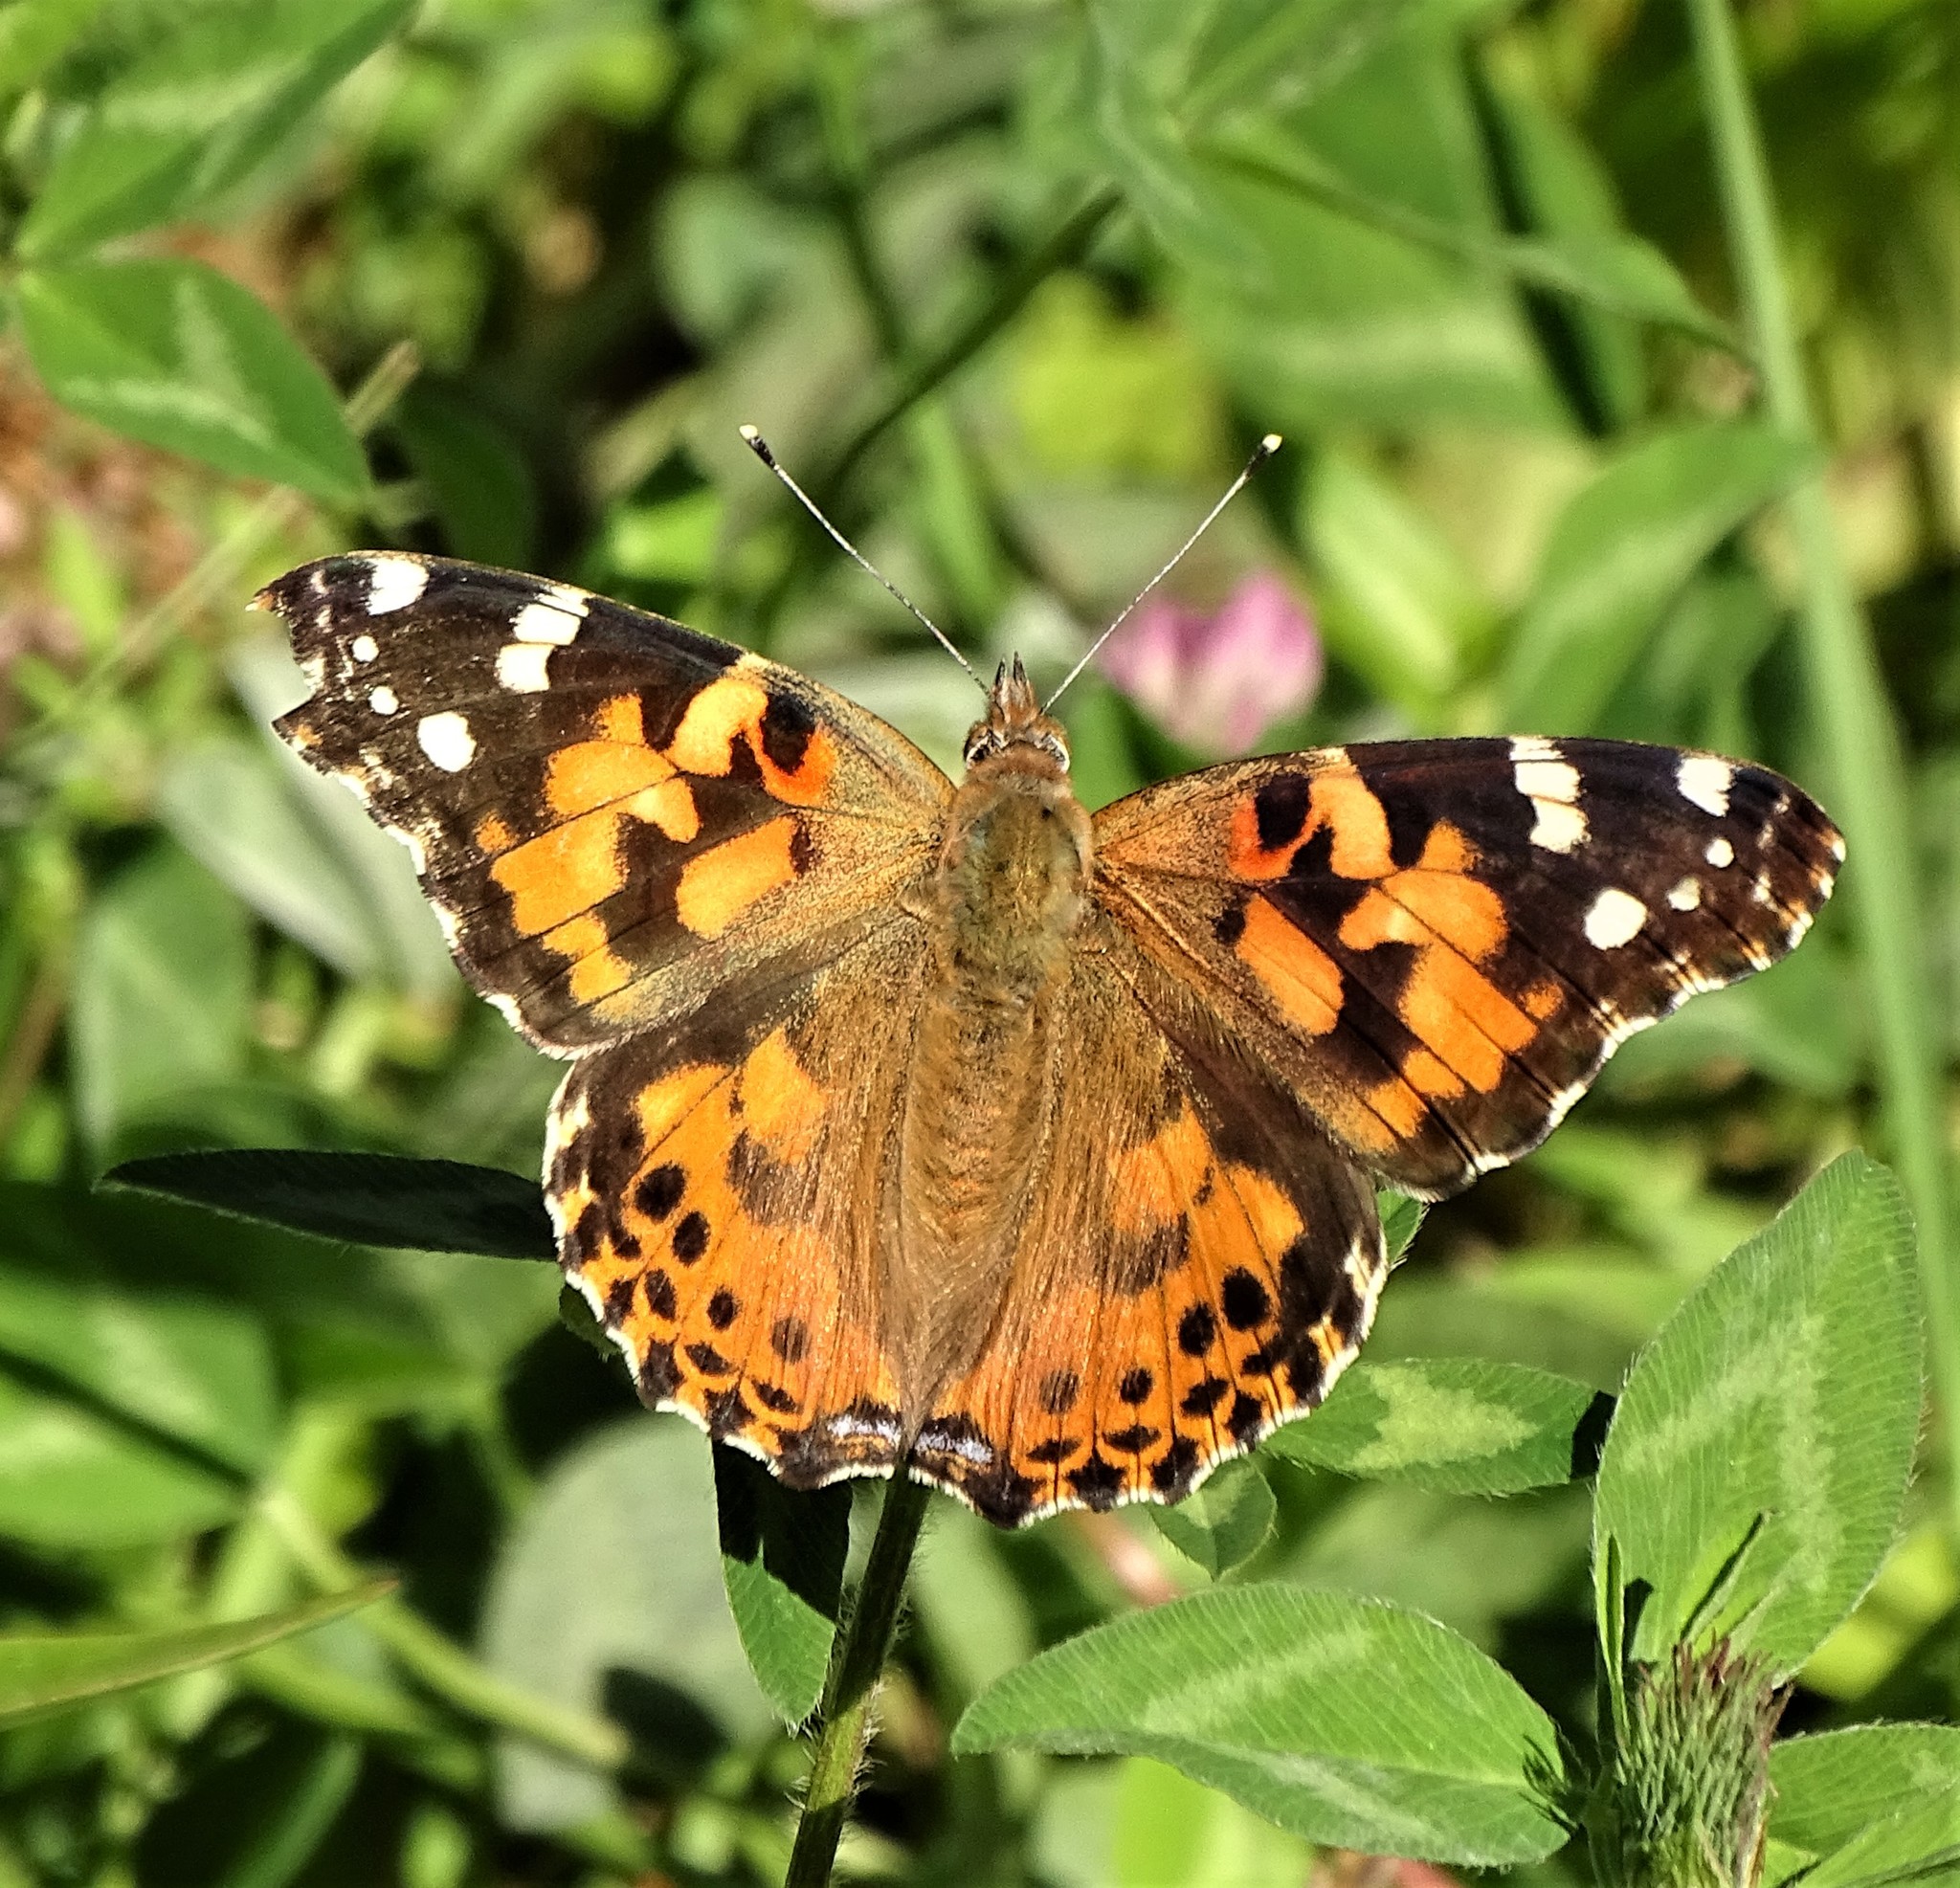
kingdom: Animalia
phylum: Arthropoda
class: Insecta
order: Lepidoptera
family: Nymphalidae
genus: Vanessa
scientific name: Vanessa cardui
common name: Painted lady
